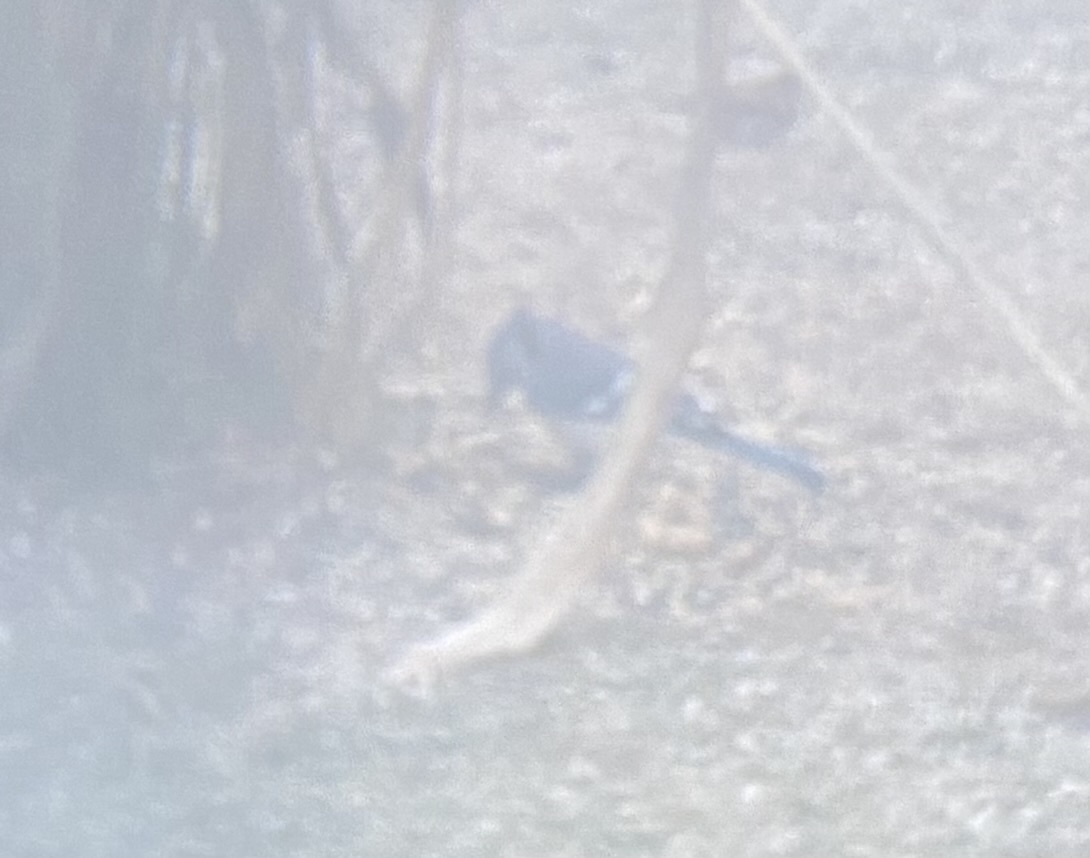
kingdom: Animalia
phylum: Chordata
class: Aves
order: Passeriformes
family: Corvidae
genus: Cyanocitta
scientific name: Cyanocitta cristata
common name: Blue jay
